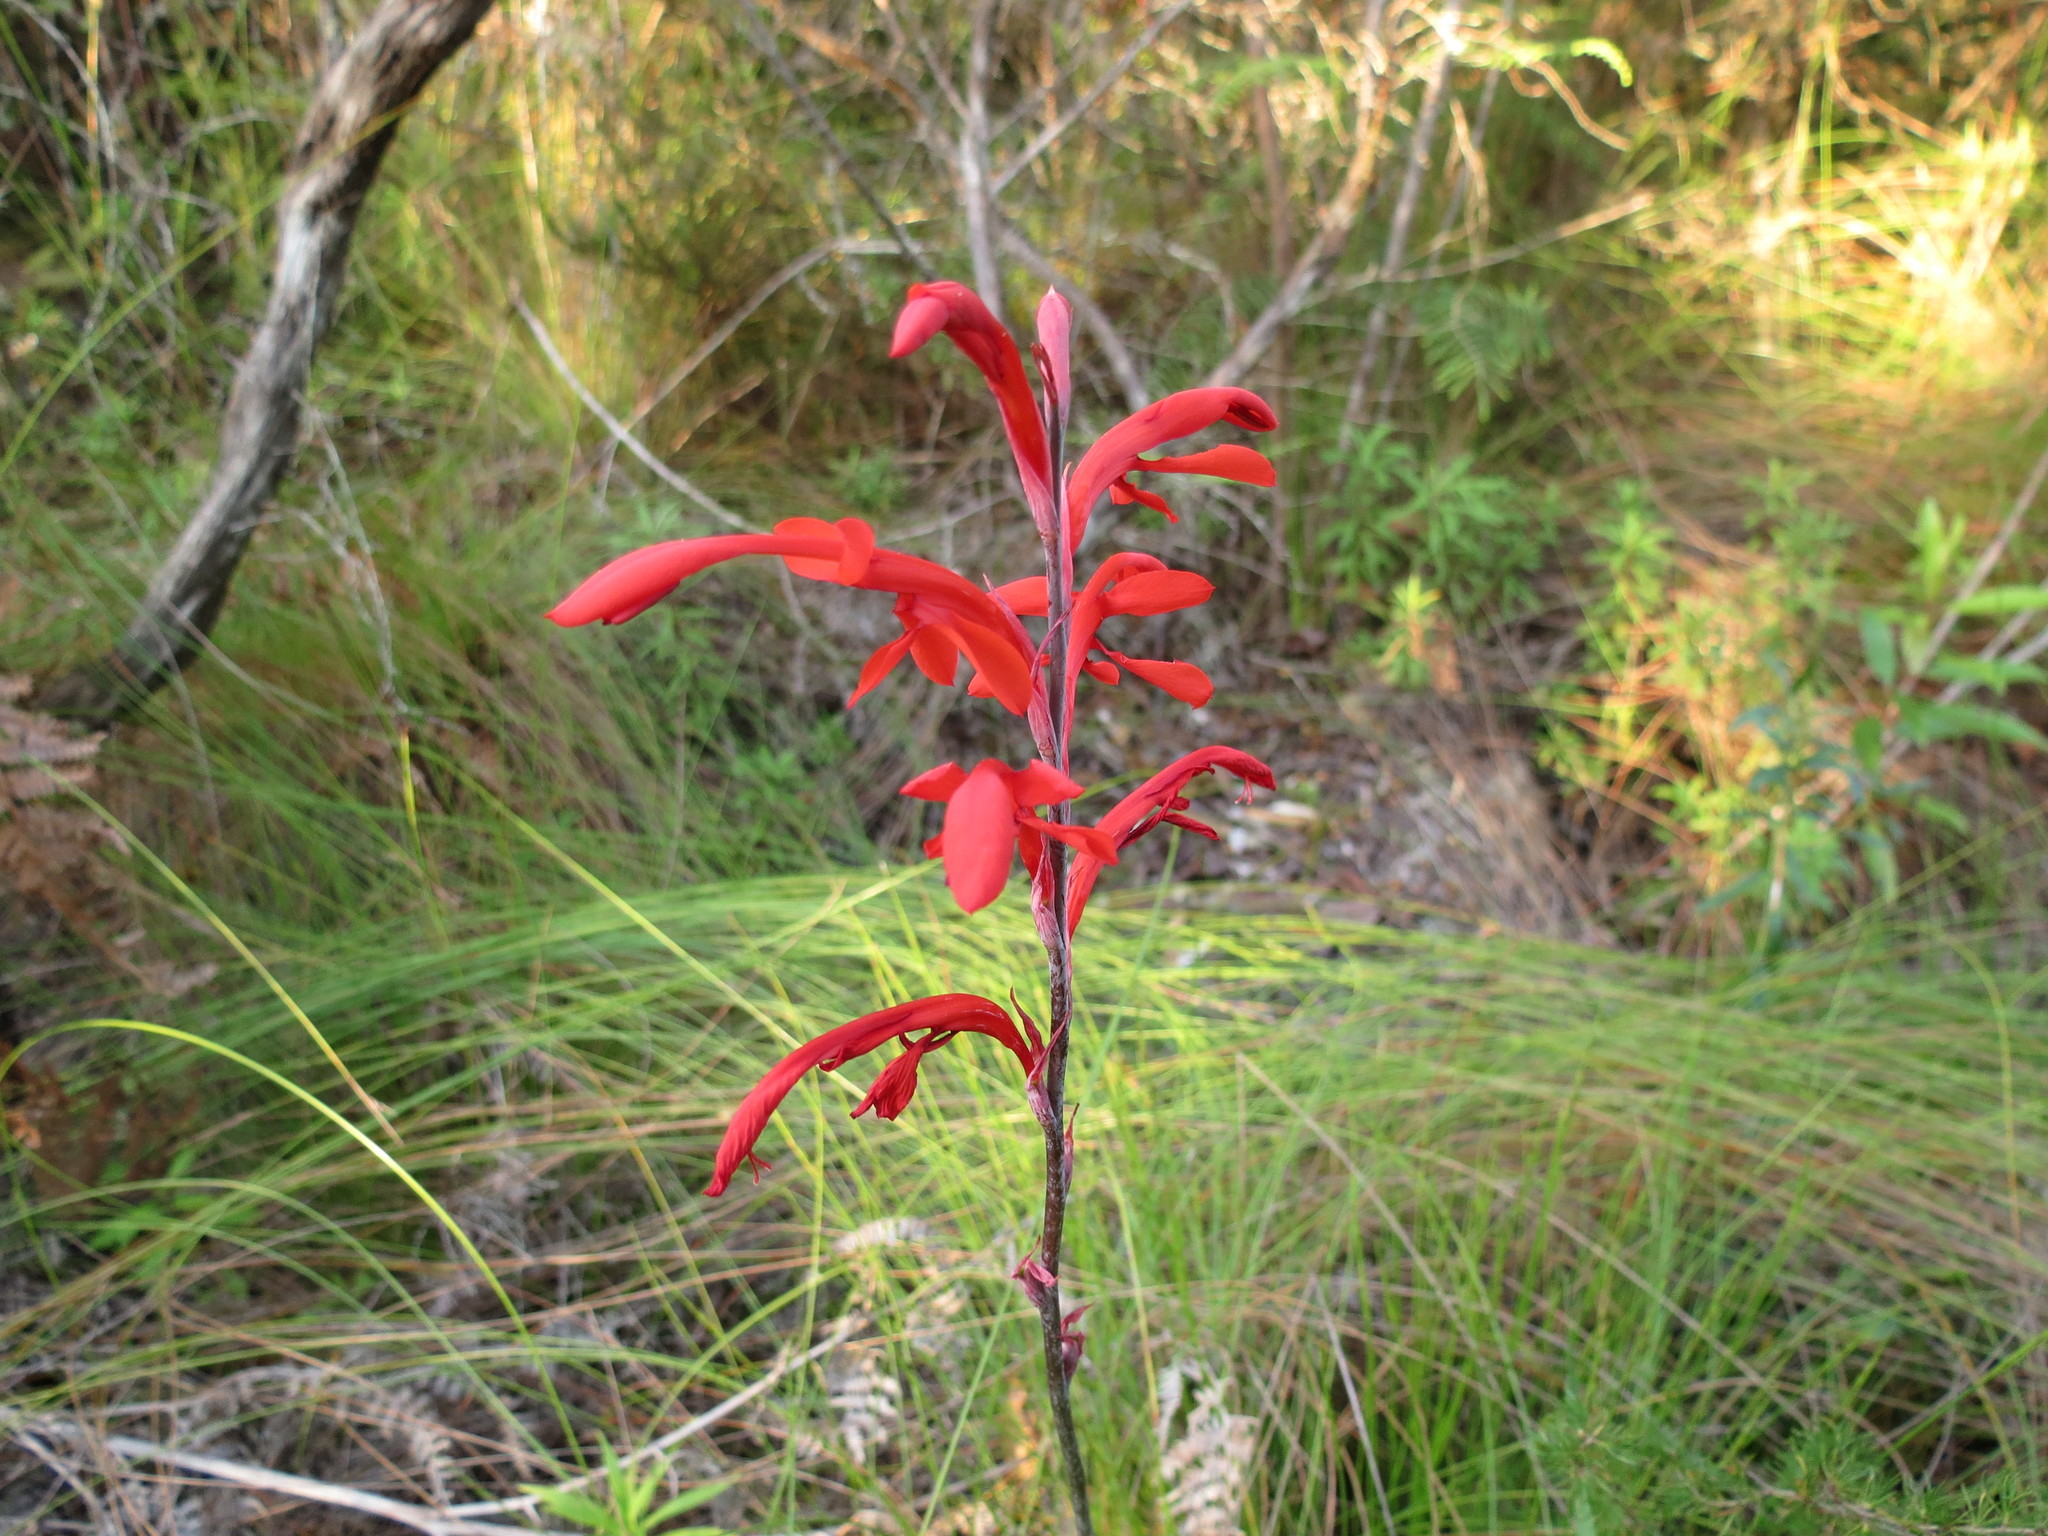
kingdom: Plantae
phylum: Tracheophyta
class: Liliopsida
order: Asparagales
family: Iridaceae
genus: Tritoniopsis
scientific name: Tritoniopsis caffra
